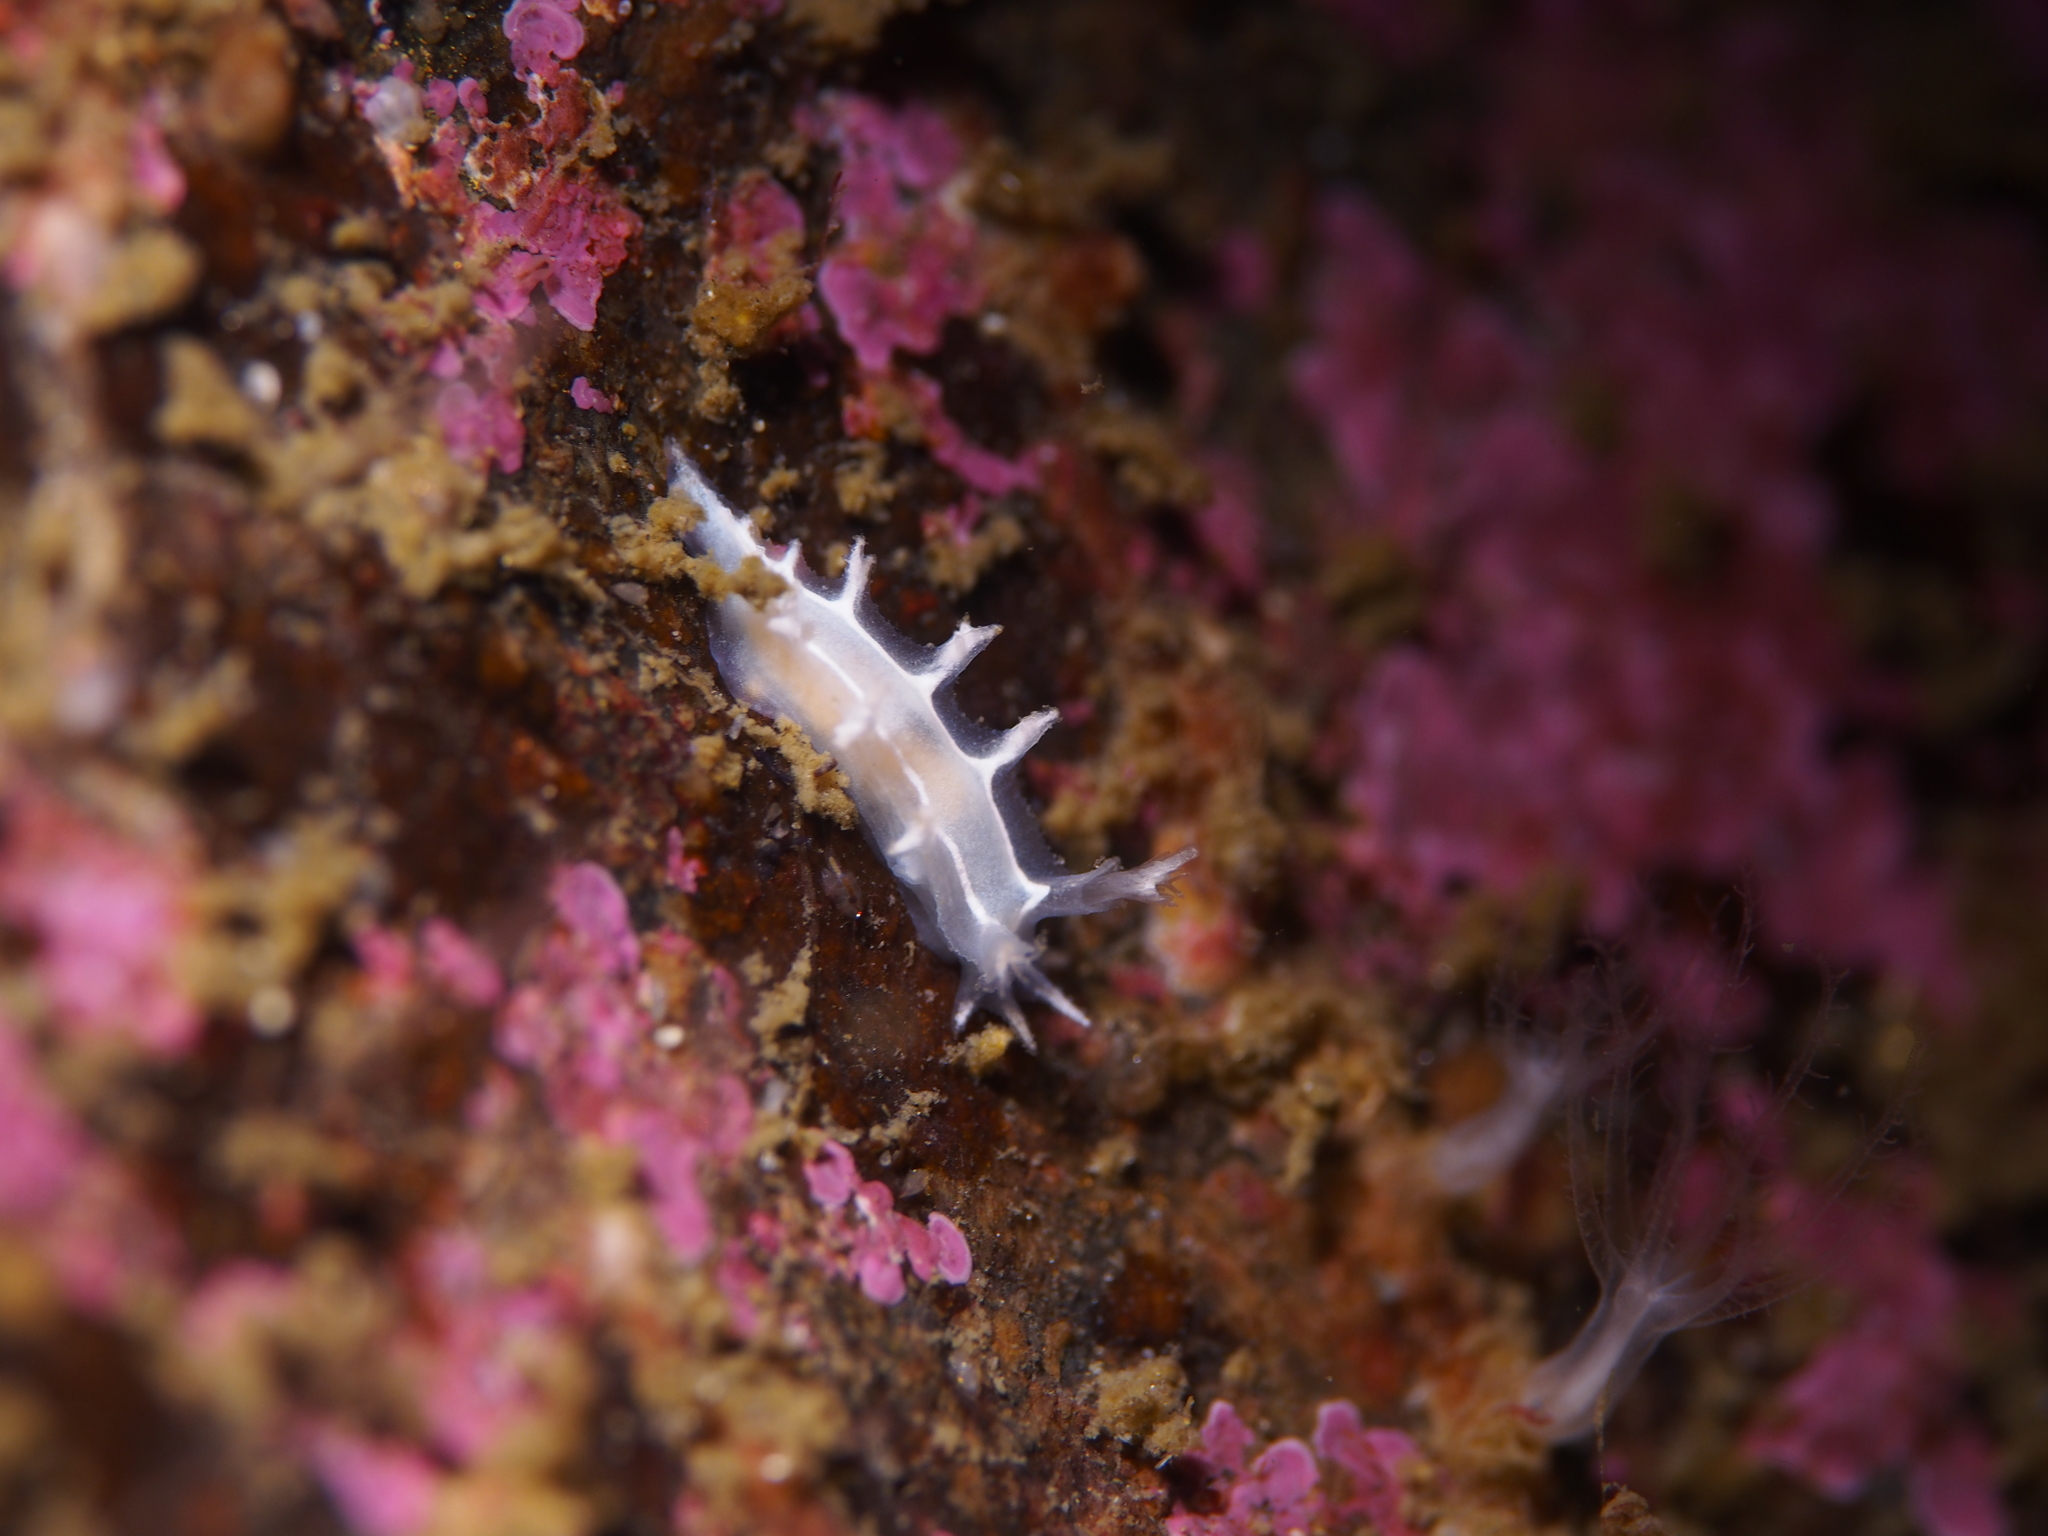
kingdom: Animalia
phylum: Mollusca
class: Gastropoda
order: Nudibranchia
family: Tritoniidae
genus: Duvaucelia
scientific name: Duvaucelia lineata
